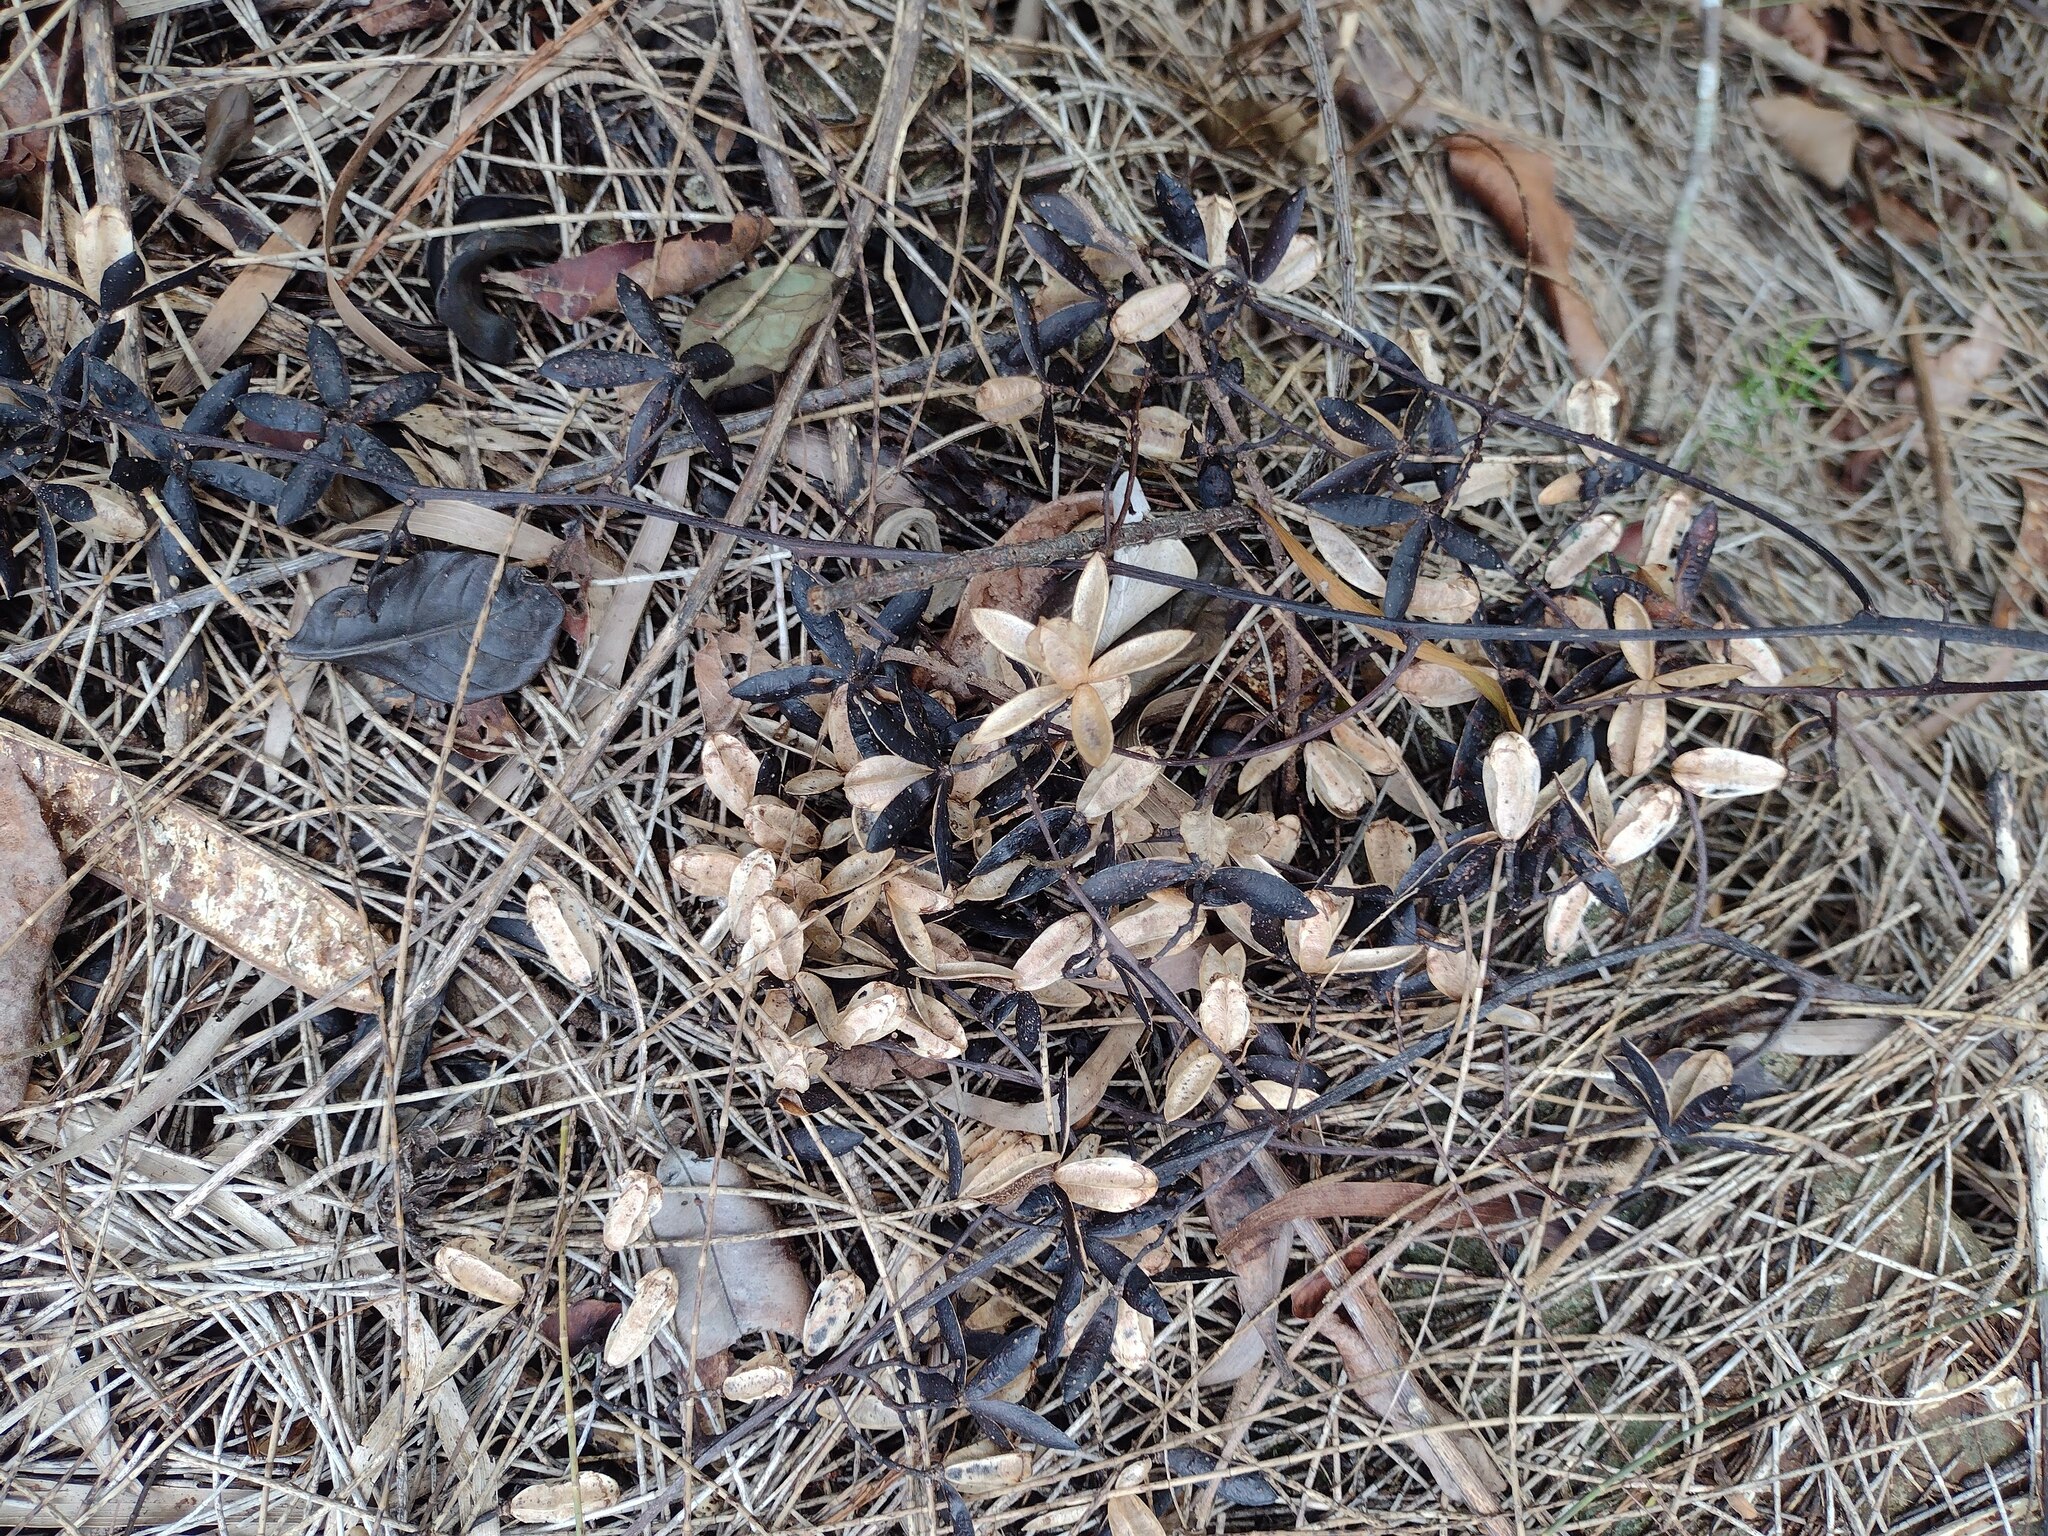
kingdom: Plantae
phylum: Tracheophyta
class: Magnoliopsida
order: Sapindales
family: Meliaceae
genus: Toona
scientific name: Toona ciliata
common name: Australian redcedar
